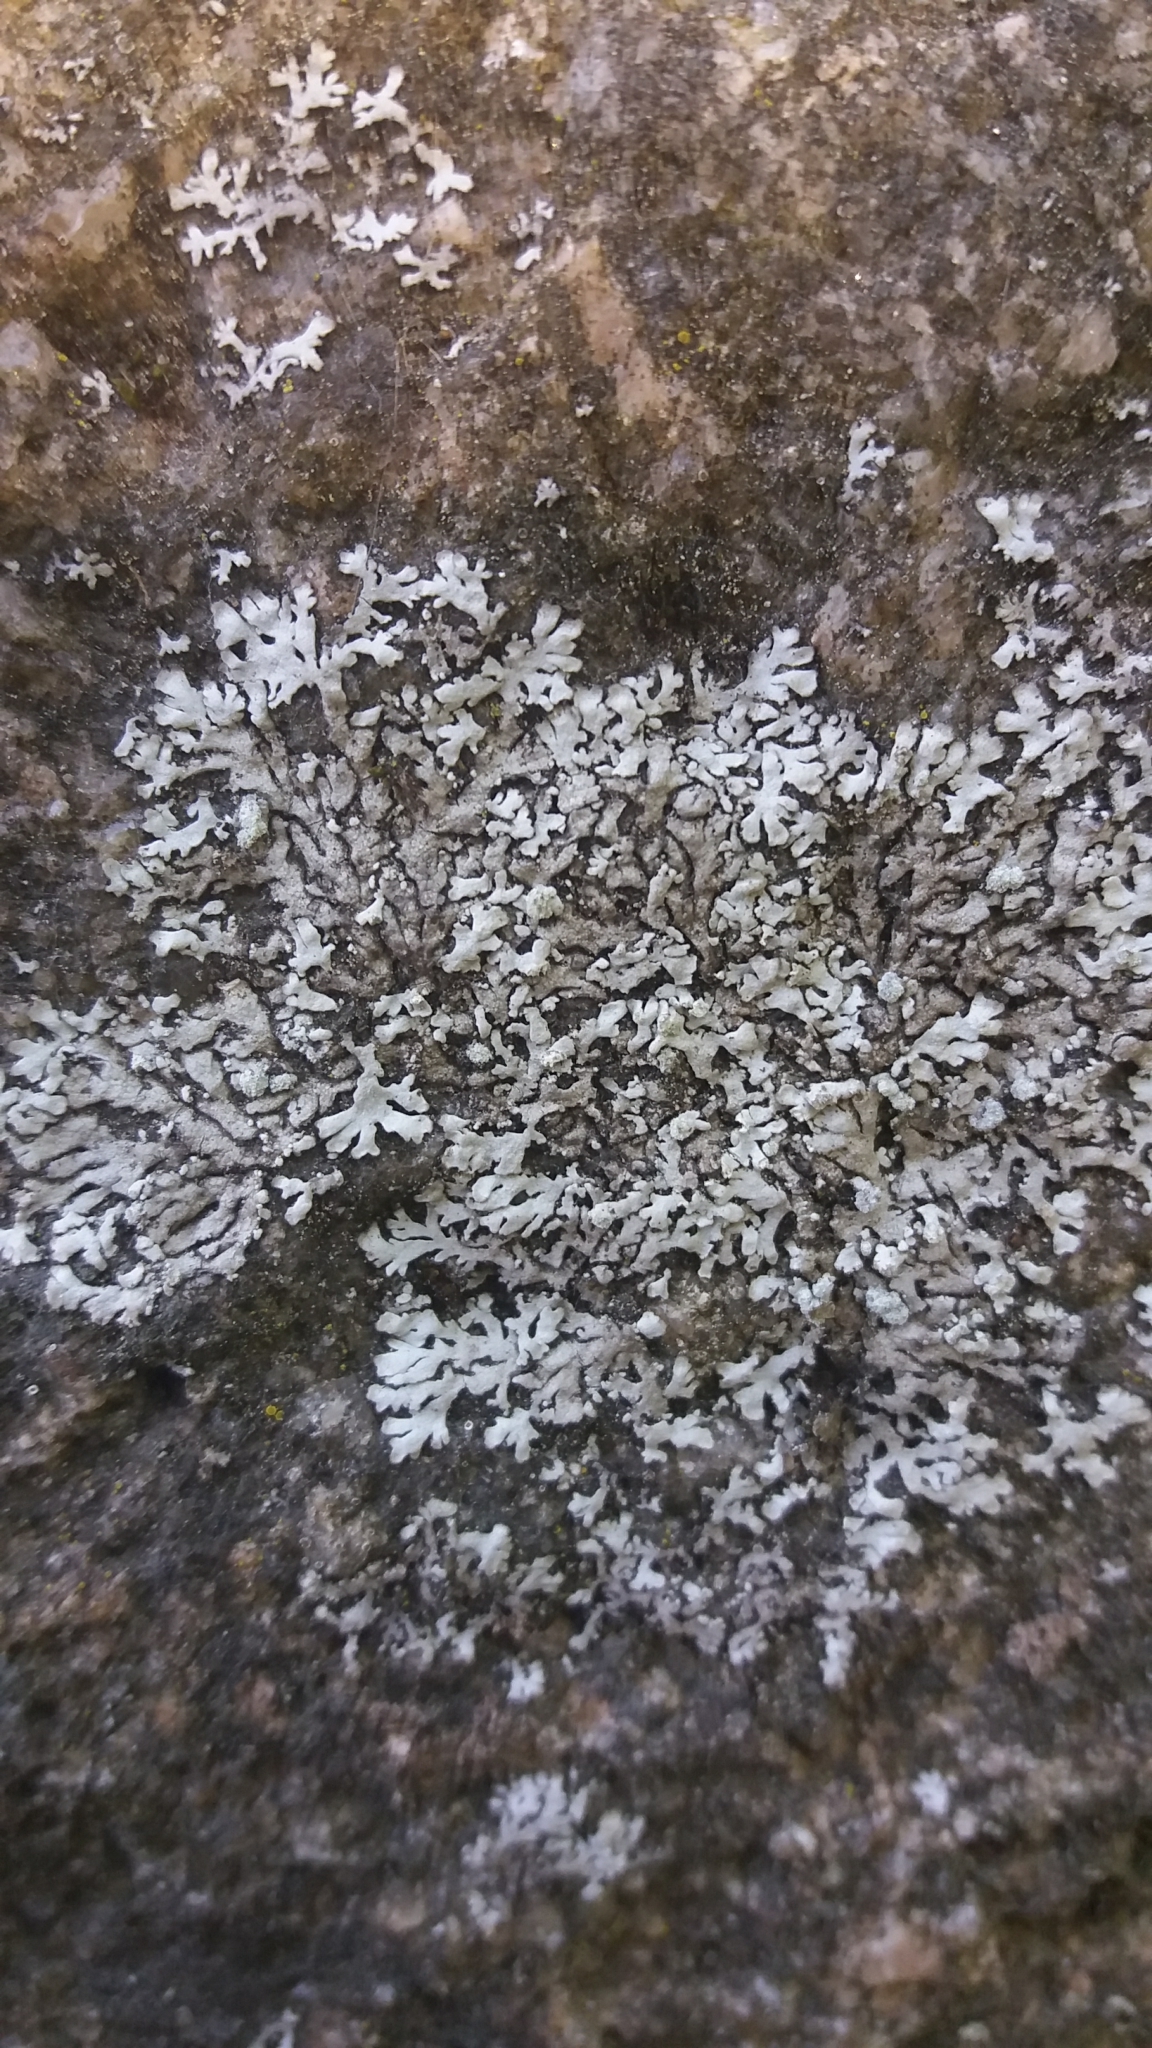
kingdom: Fungi
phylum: Ascomycota
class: Lecanoromycetes
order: Caliciales
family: Physciaceae
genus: Physcia
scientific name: Physcia caesia
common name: Blue-gray rosette lichen
